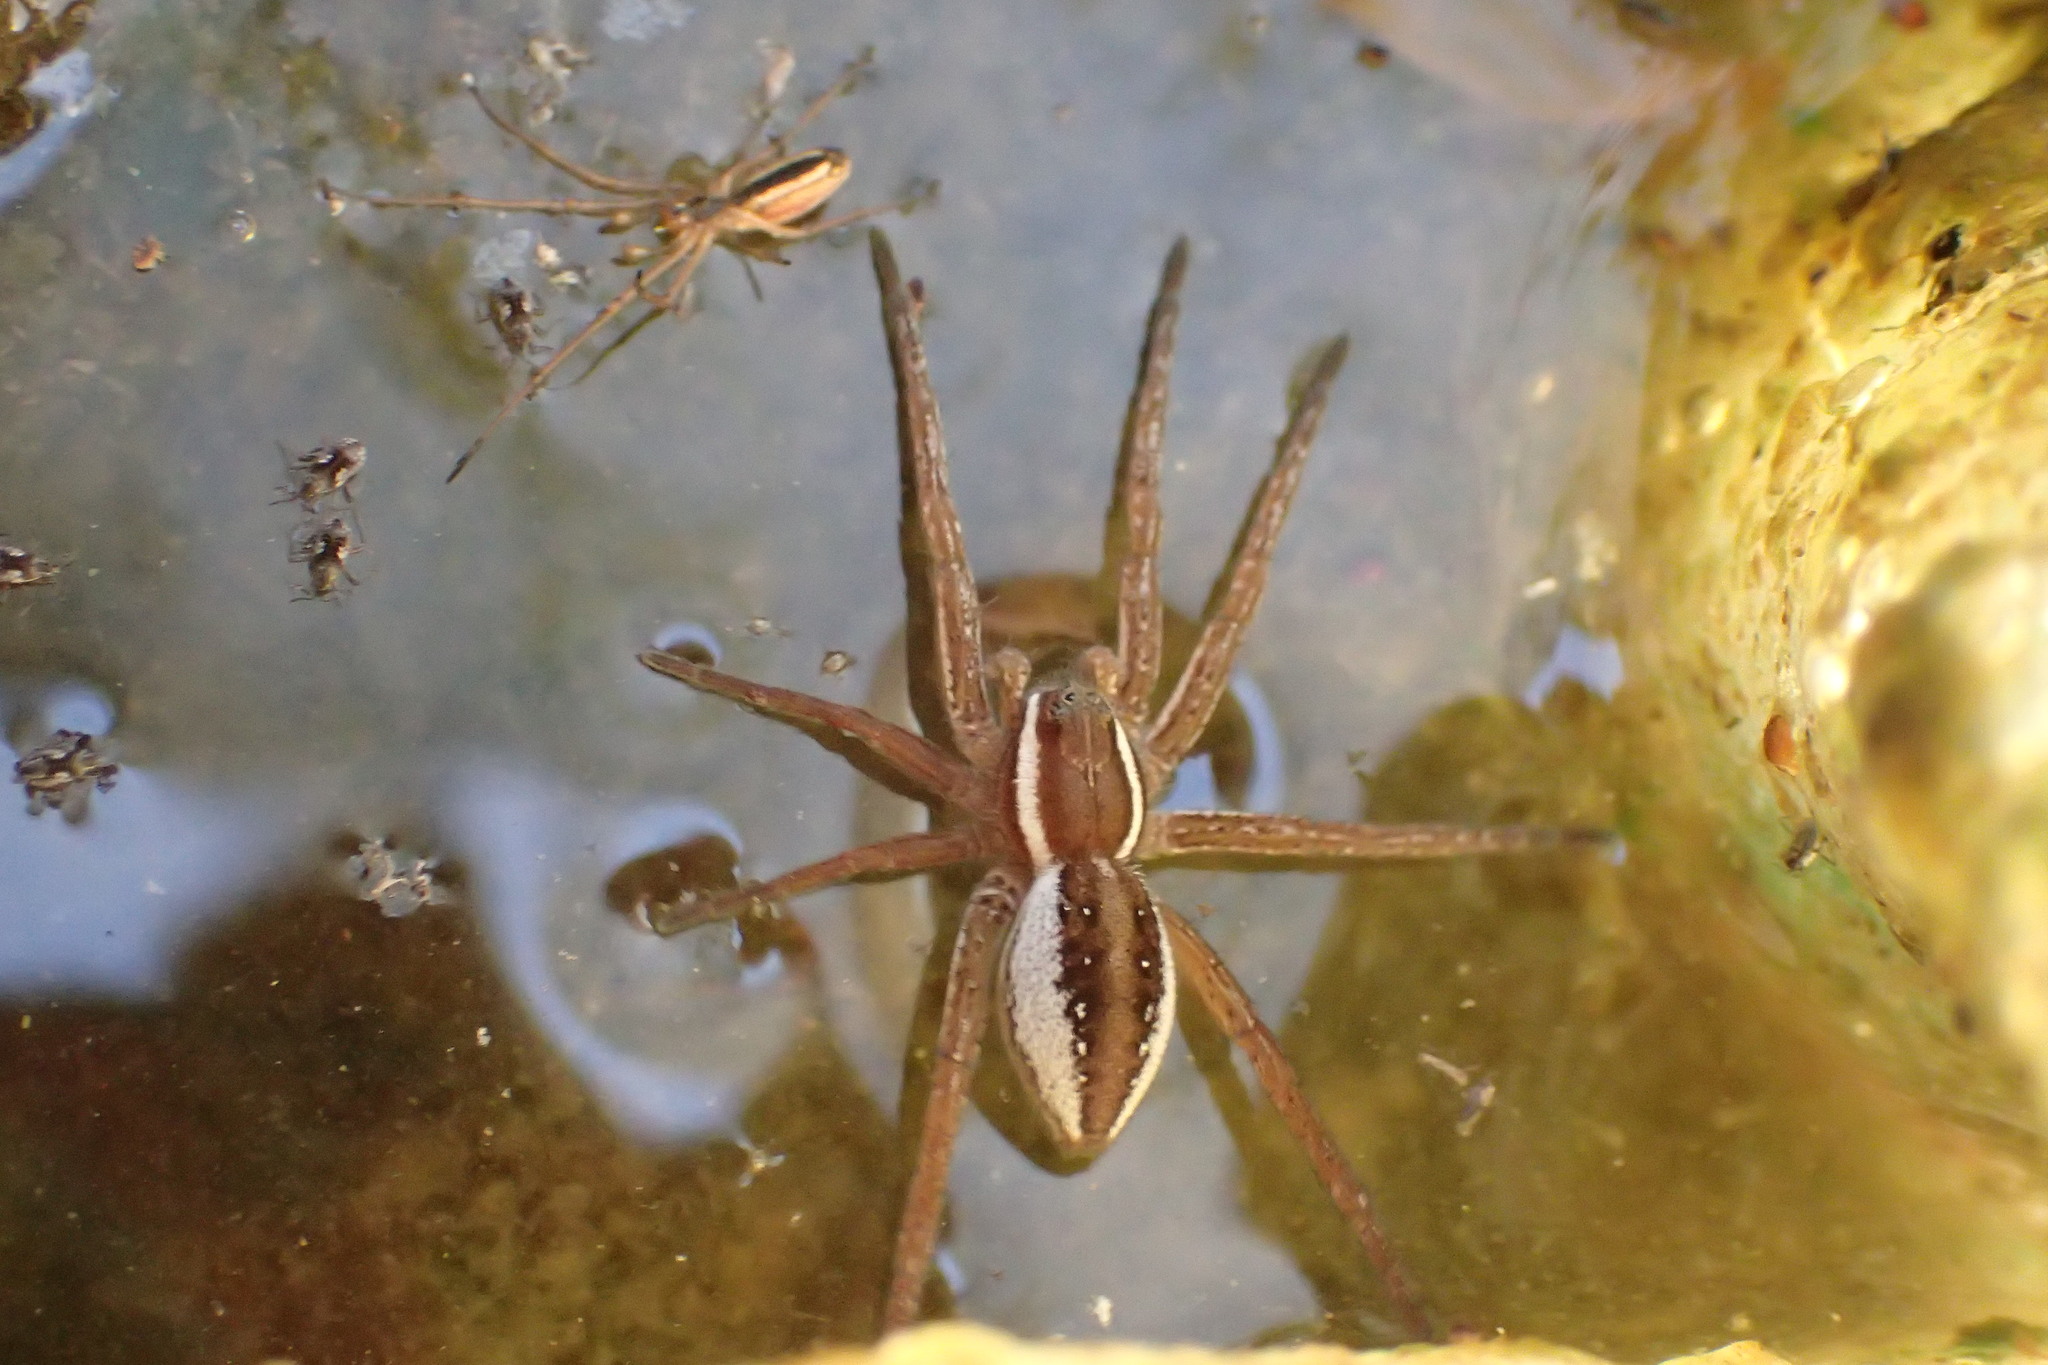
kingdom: Animalia
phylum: Arthropoda
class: Arachnida
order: Araneae
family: Pisauridae
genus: Dolomedes
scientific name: Dolomedes triton
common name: Six-spotted fishing spider
